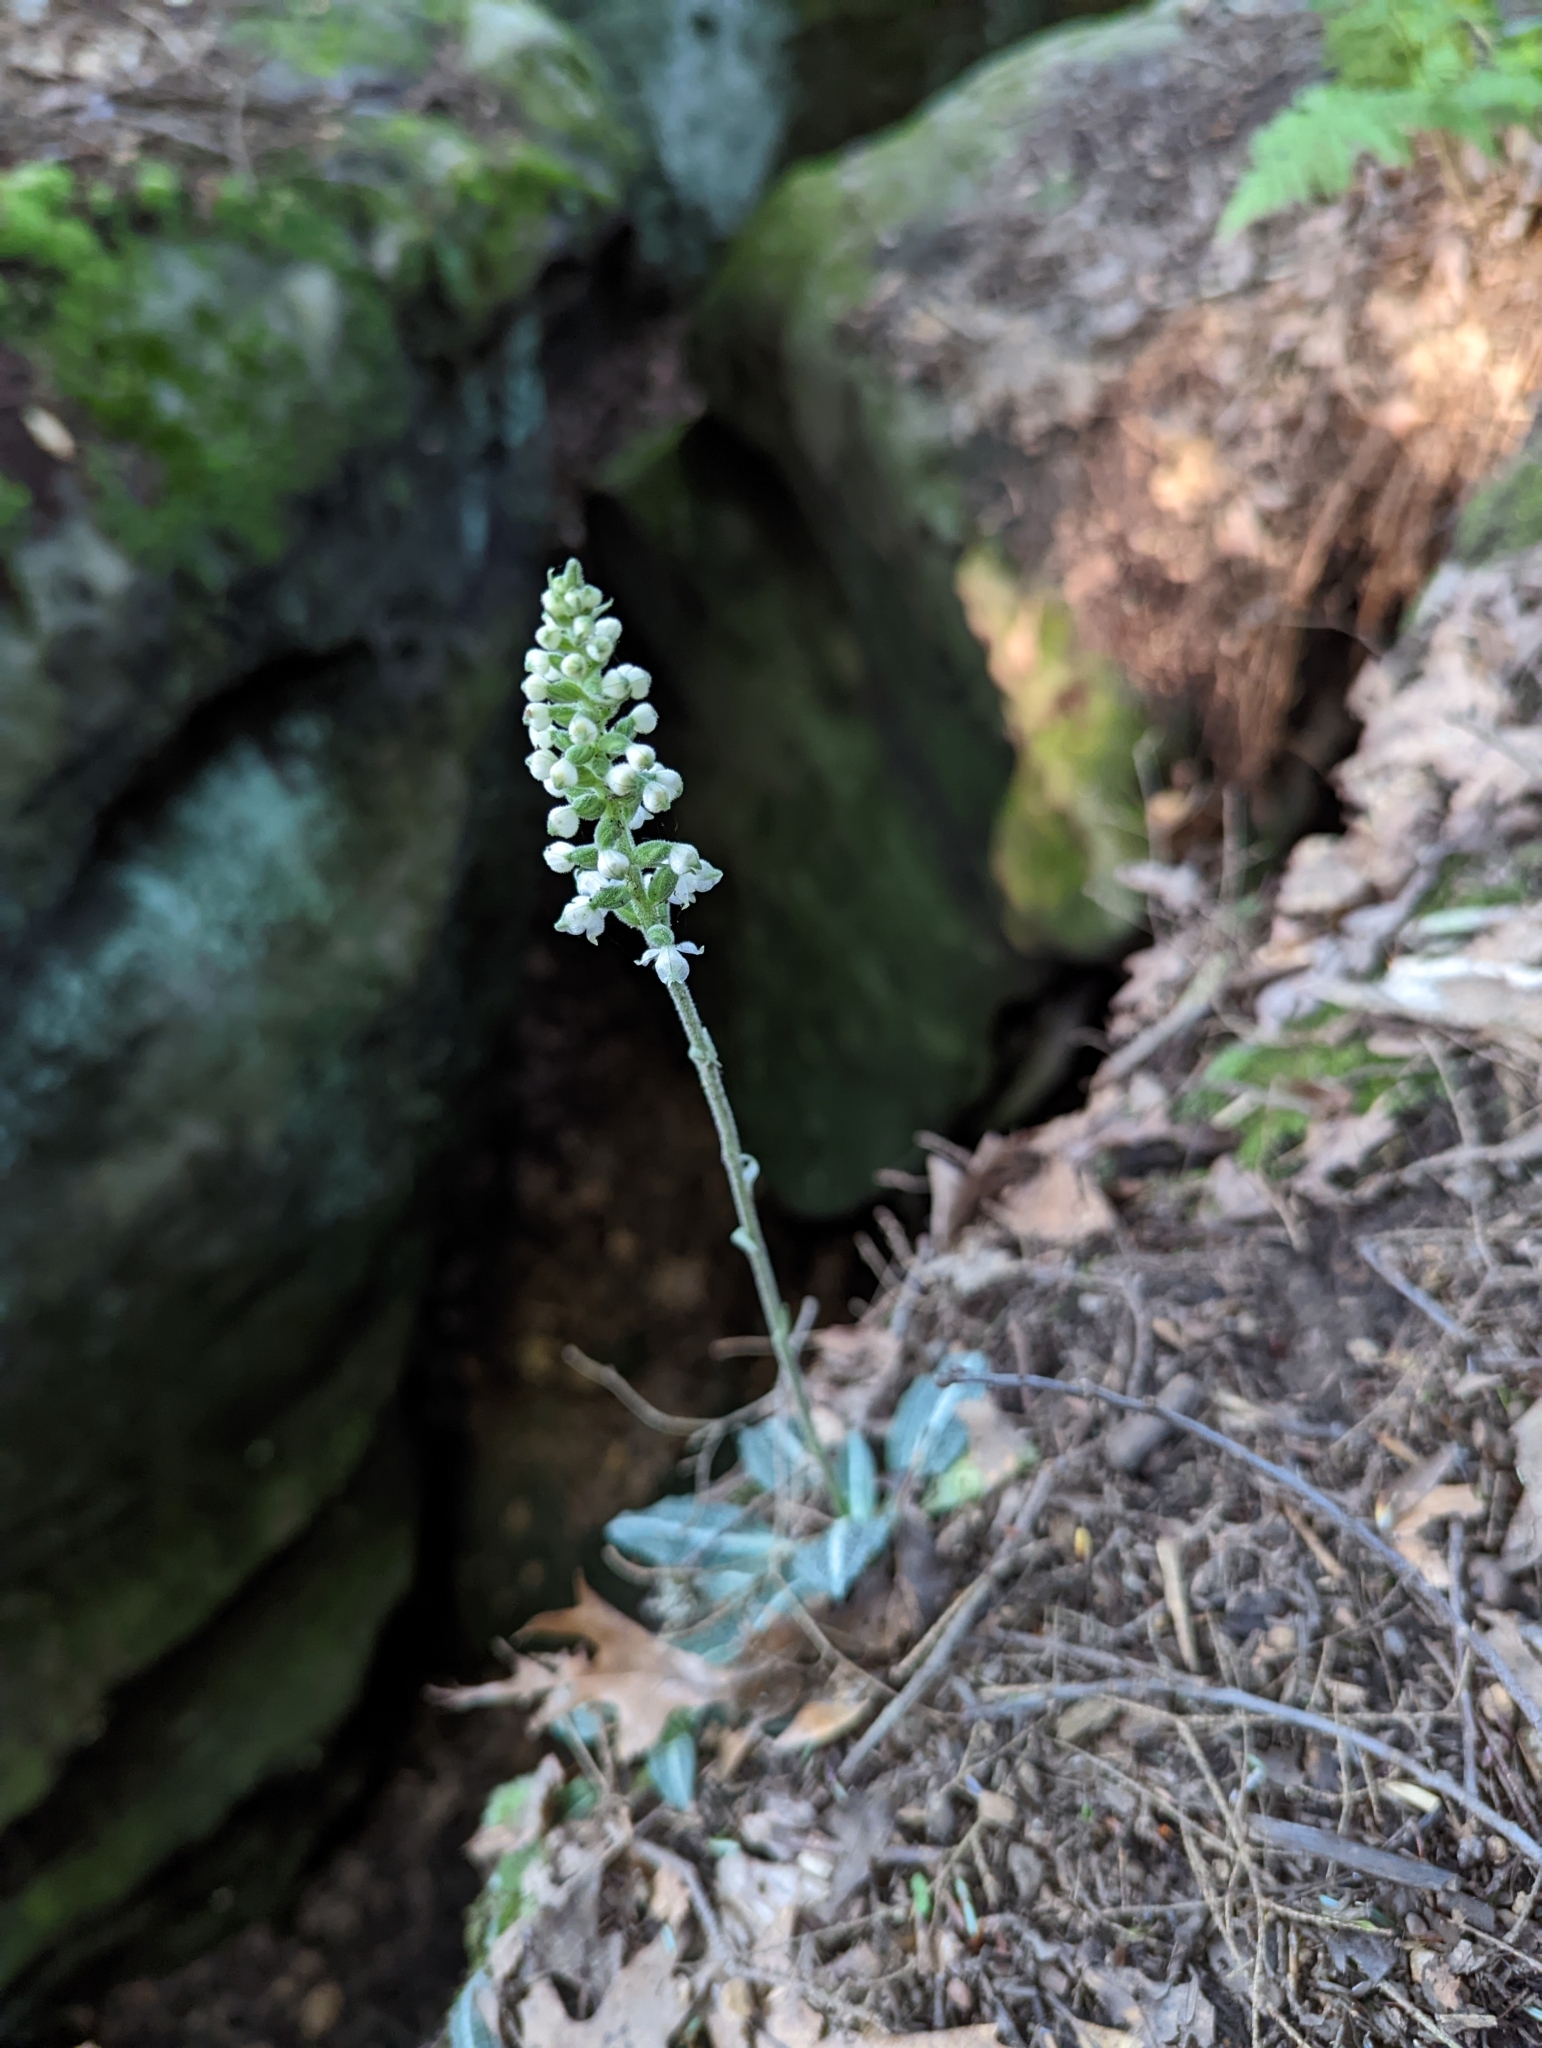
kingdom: Plantae
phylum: Tracheophyta
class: Liliopsida
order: Asparagales
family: Orchidaceae
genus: Goodyera
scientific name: Goodyera pubescens
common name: Downy rattlesnake-plantain
